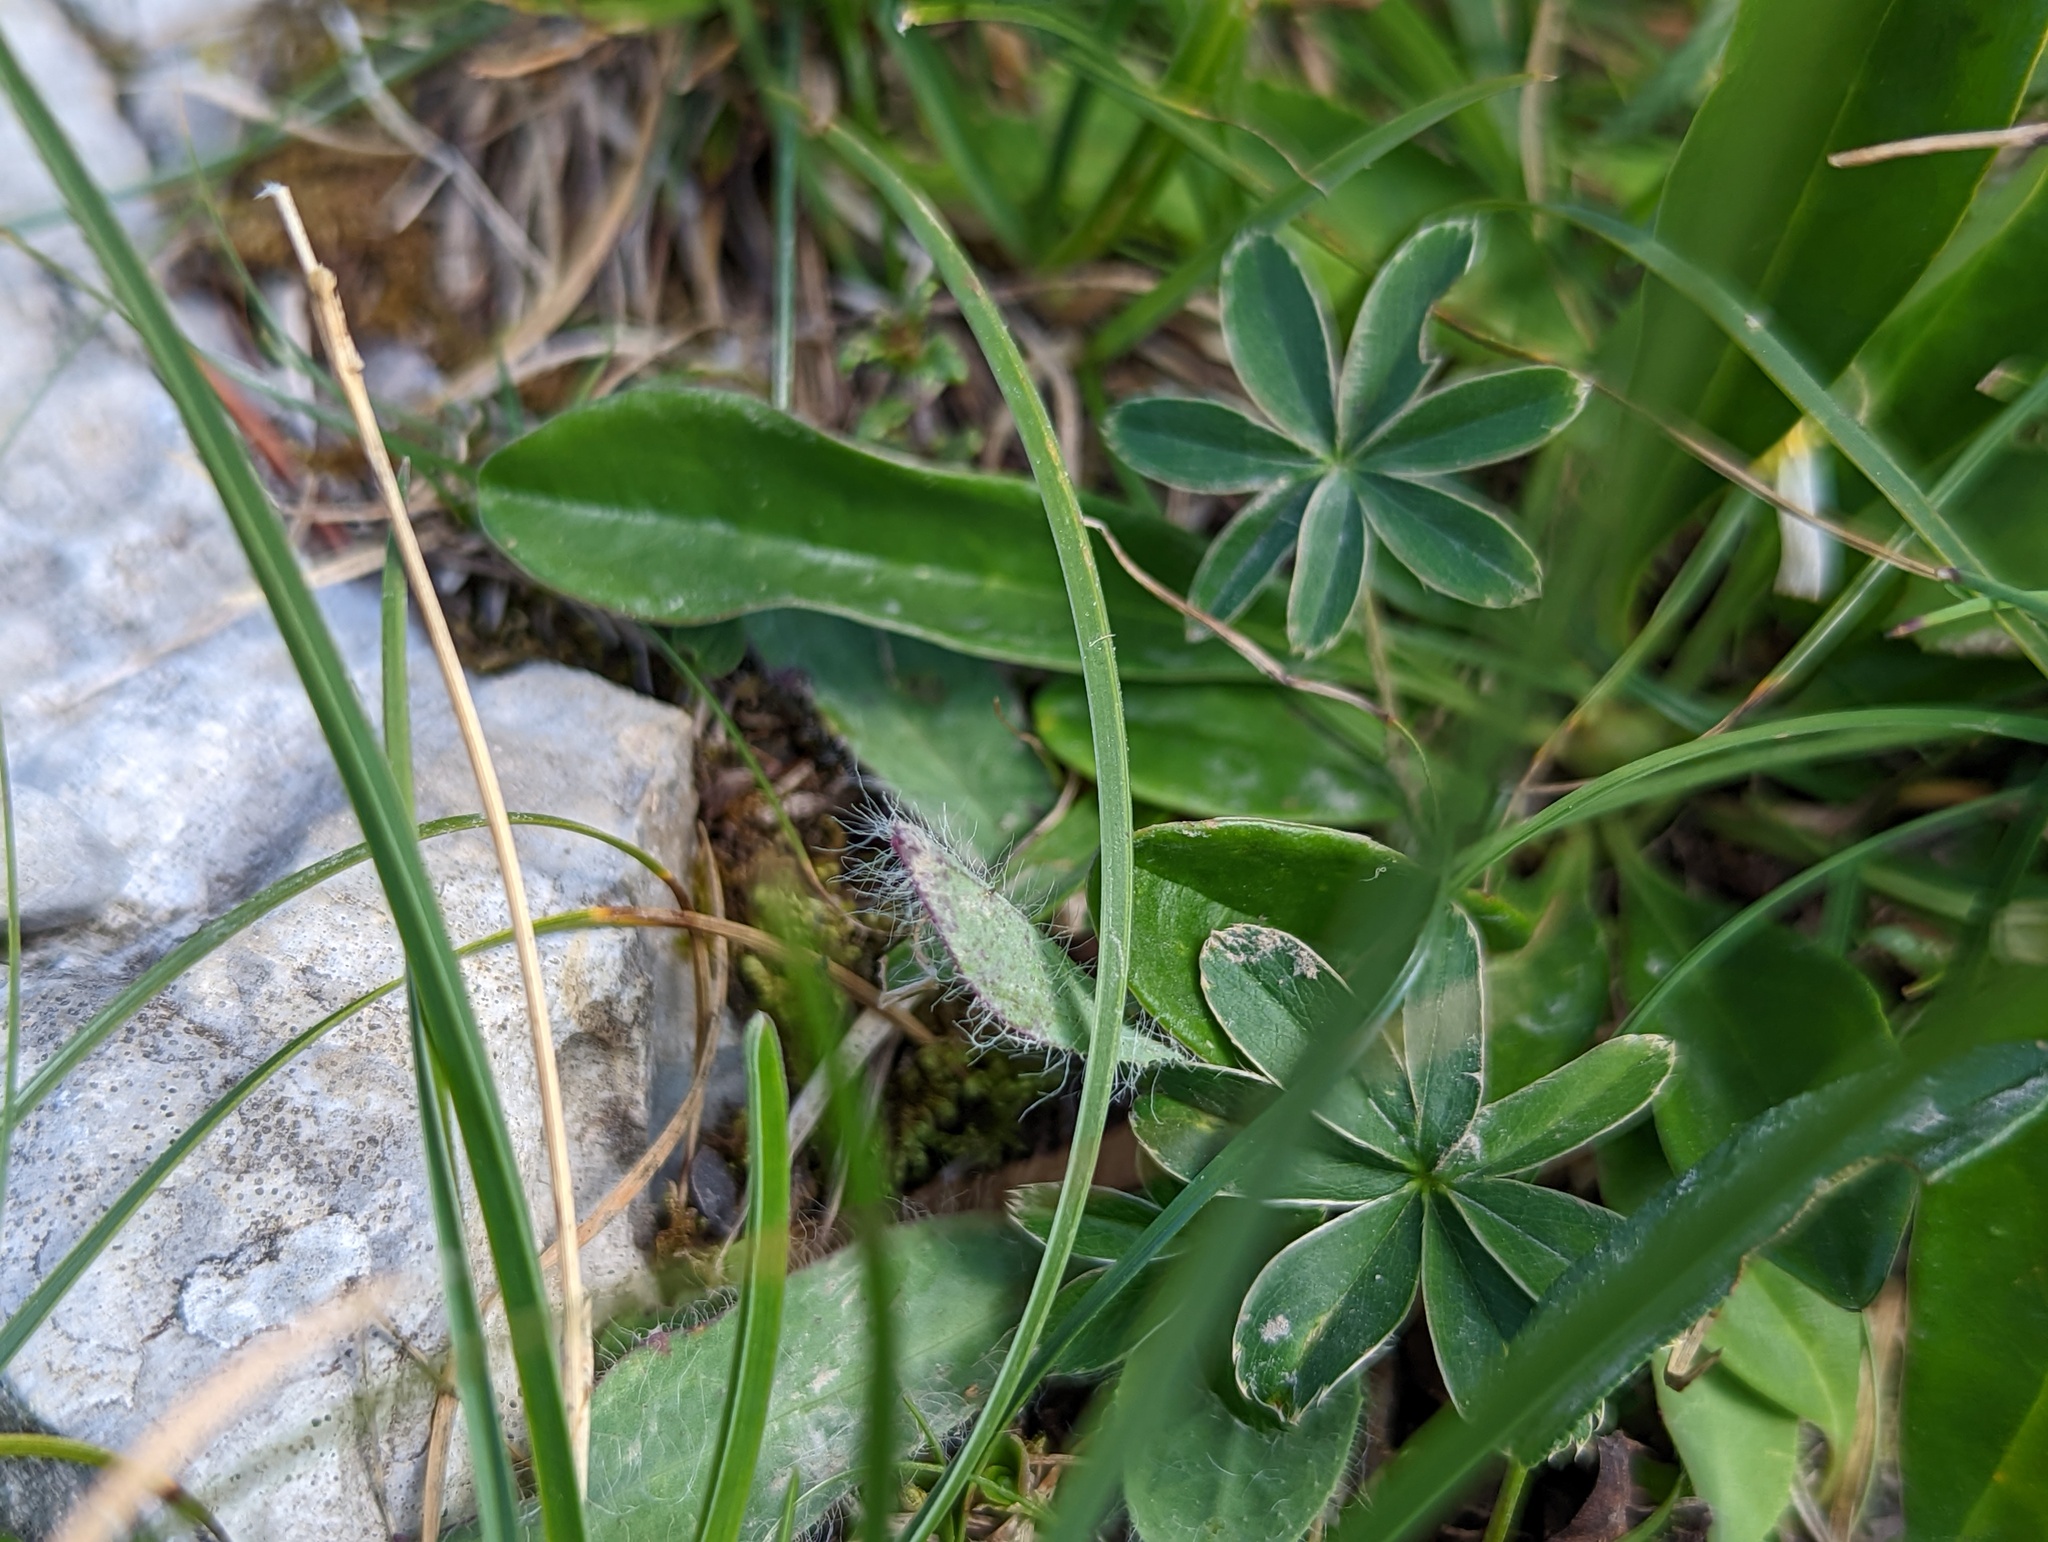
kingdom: Plantae
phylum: Tracheophyta
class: Magnoliopsida
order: Asterales
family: Asteraceae
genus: Pilosella
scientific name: Pilosella officinarum
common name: Mouse-ear hawkweed
